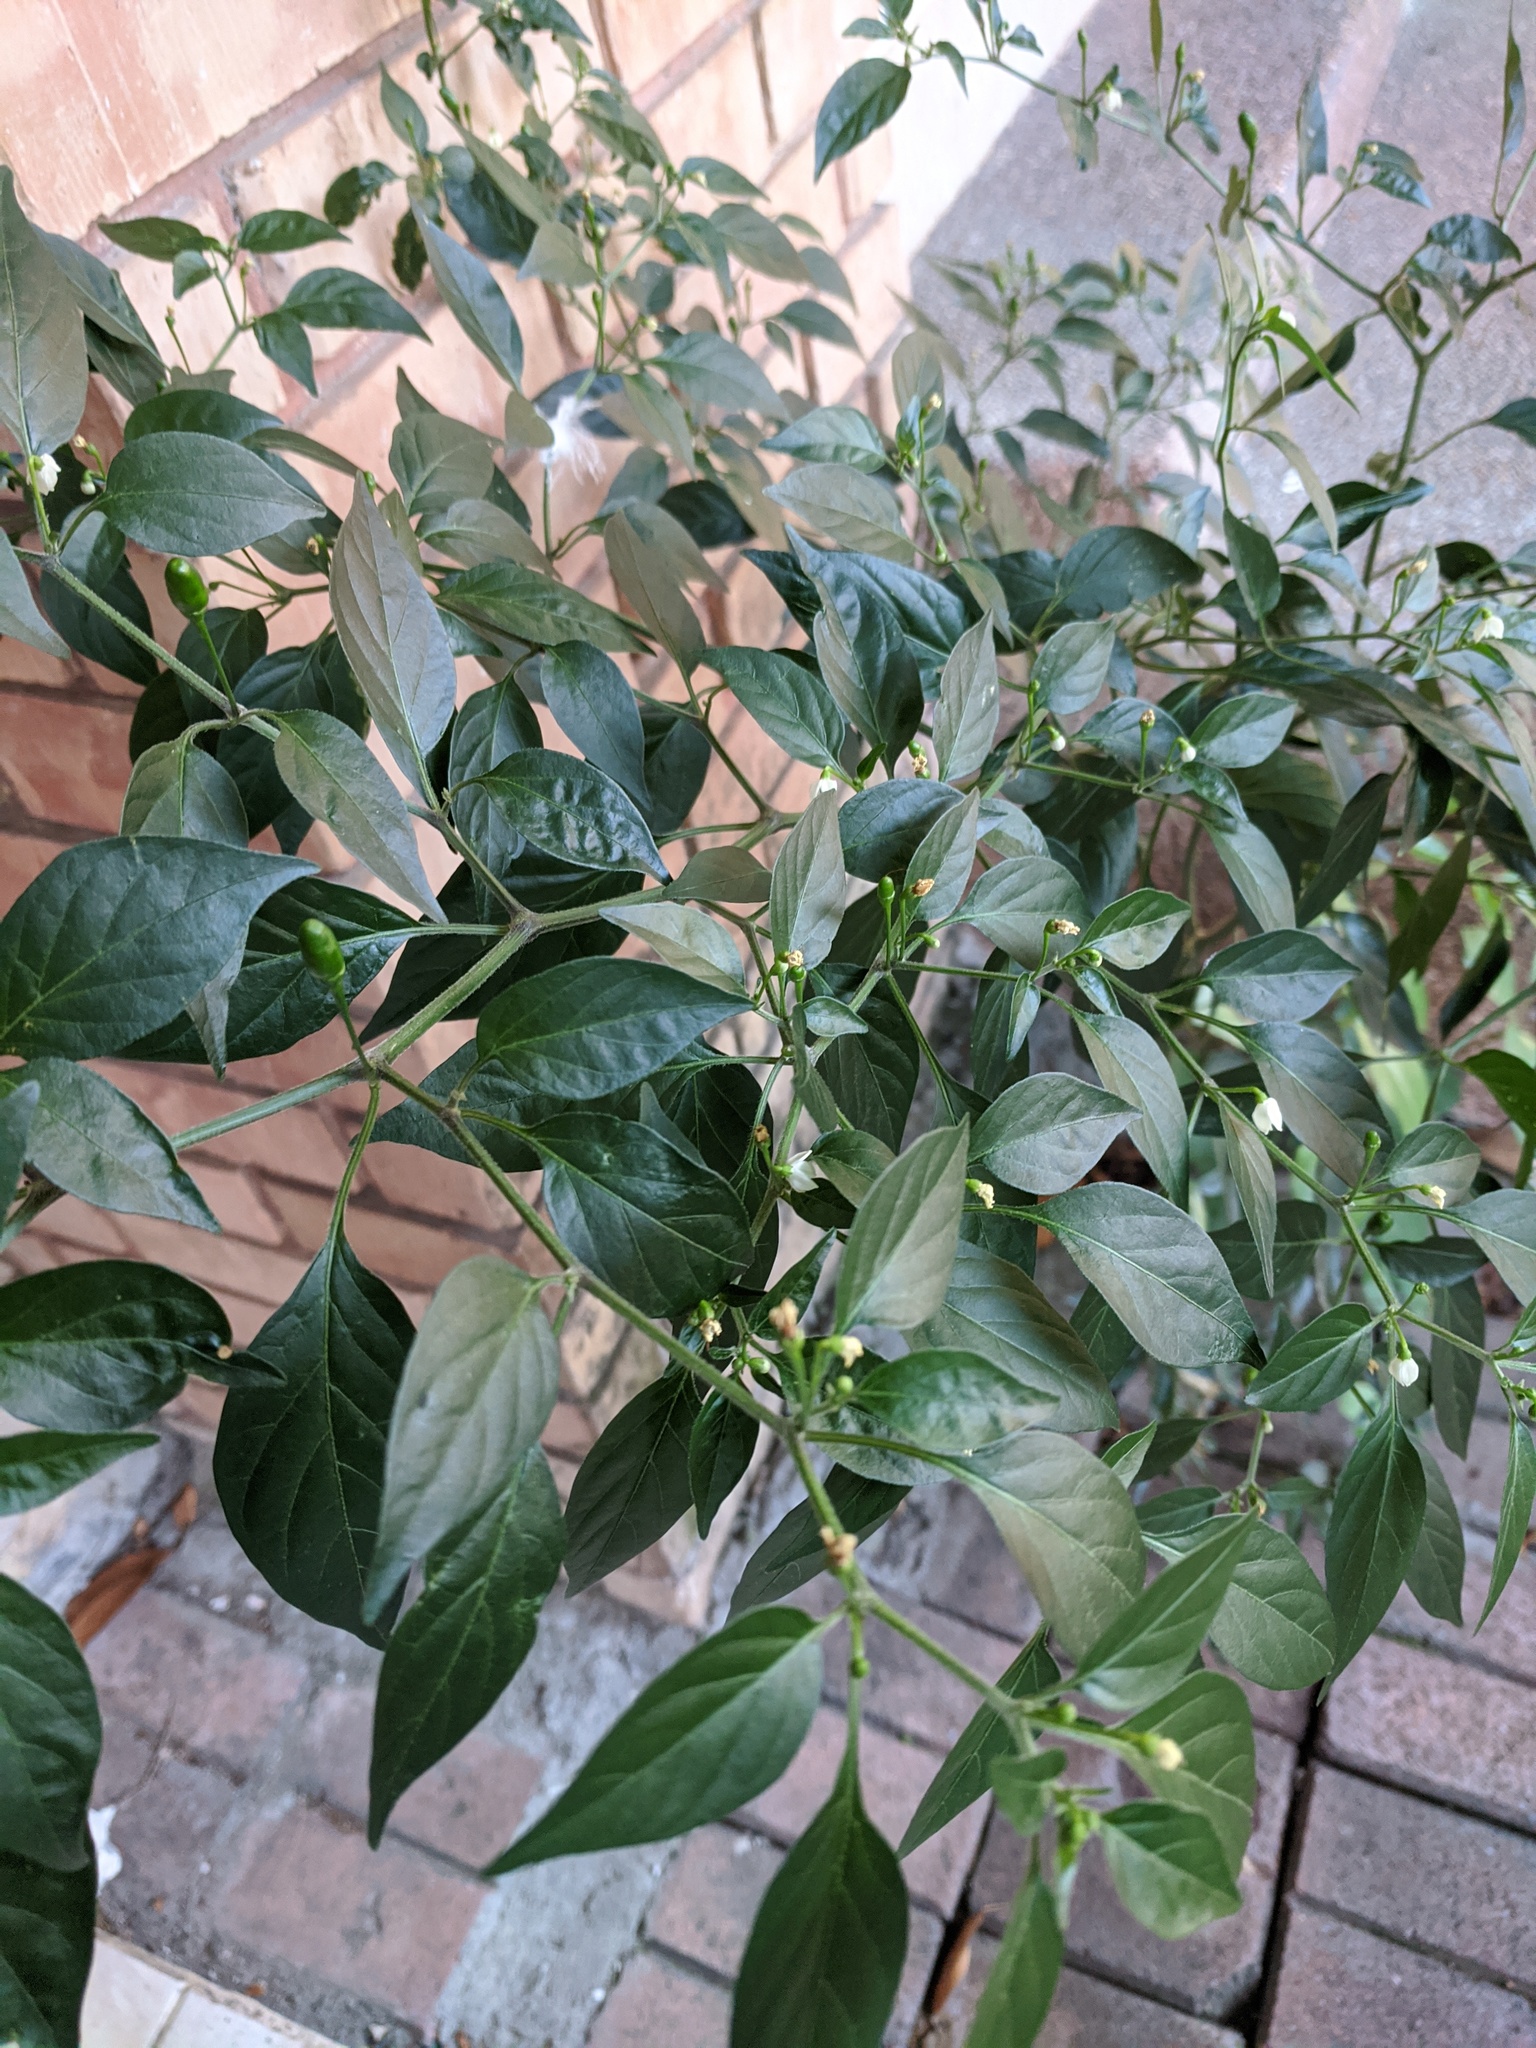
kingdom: Plantae
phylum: Tracheophyta
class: Magnoliopsida
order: Solanales
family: Solanaceae
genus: Capsicum
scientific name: Capsicum annuum
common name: Sweet pepper
